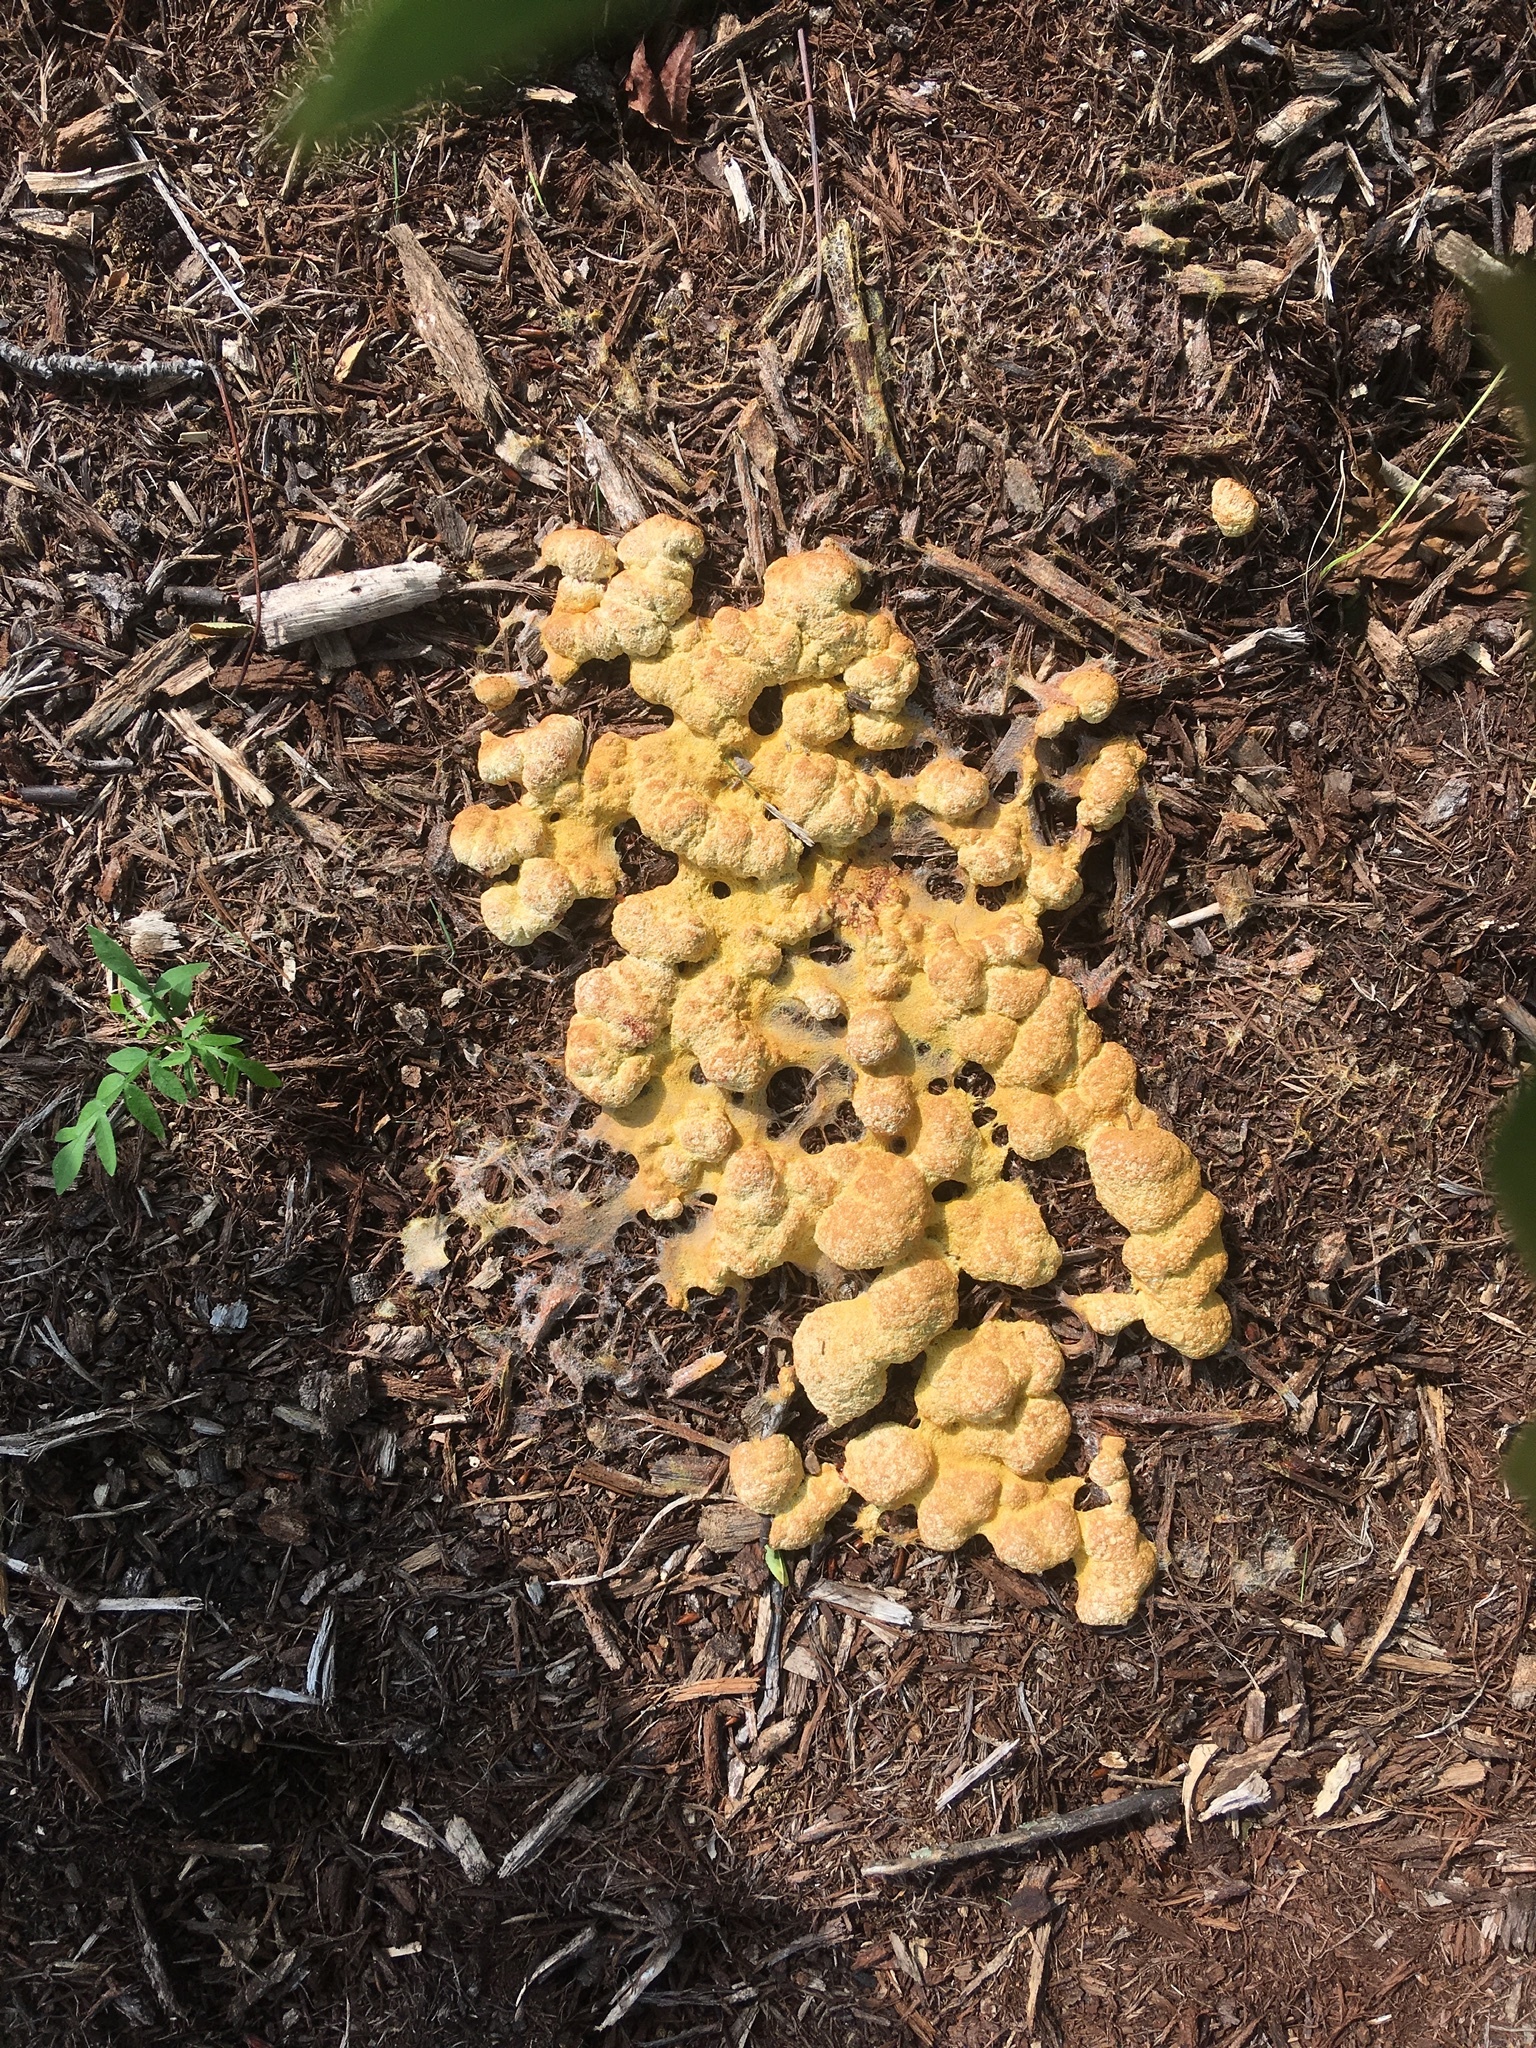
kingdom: Protozoa
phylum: Mycetozoa
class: Myxomycetes
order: Physarales
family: Physaraceae
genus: Fuligo
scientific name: Fuligo septica
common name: Dog vomit slime mold
